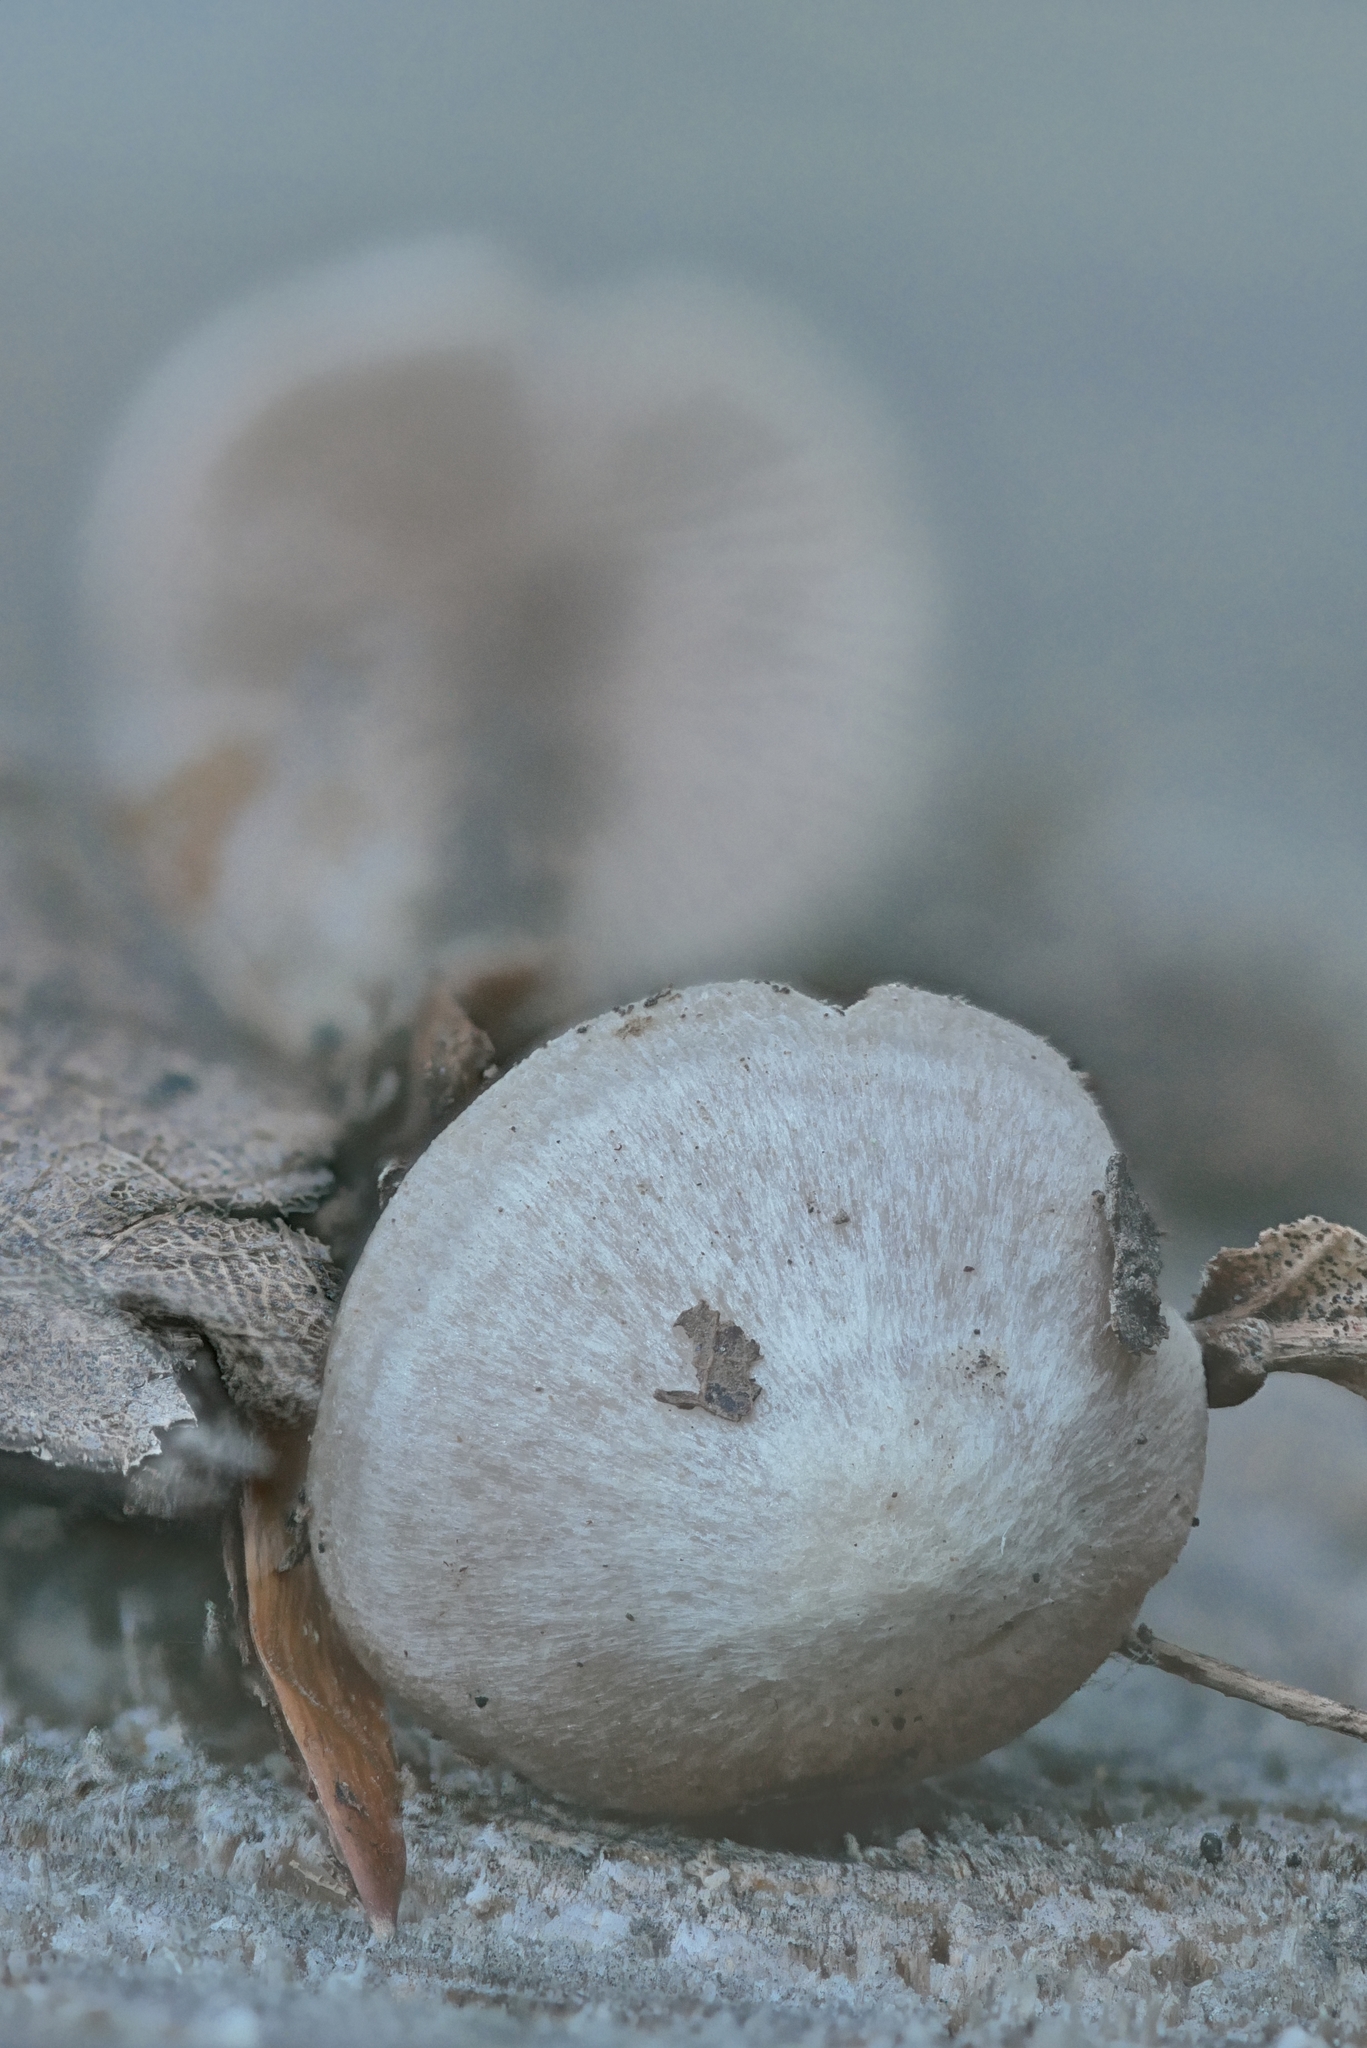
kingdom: Fungi
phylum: Basidiomycota
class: Agaricomycetes
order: Agaricales
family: Entolomataceae
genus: Entoloma
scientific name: Entoloma alboumbonatum
